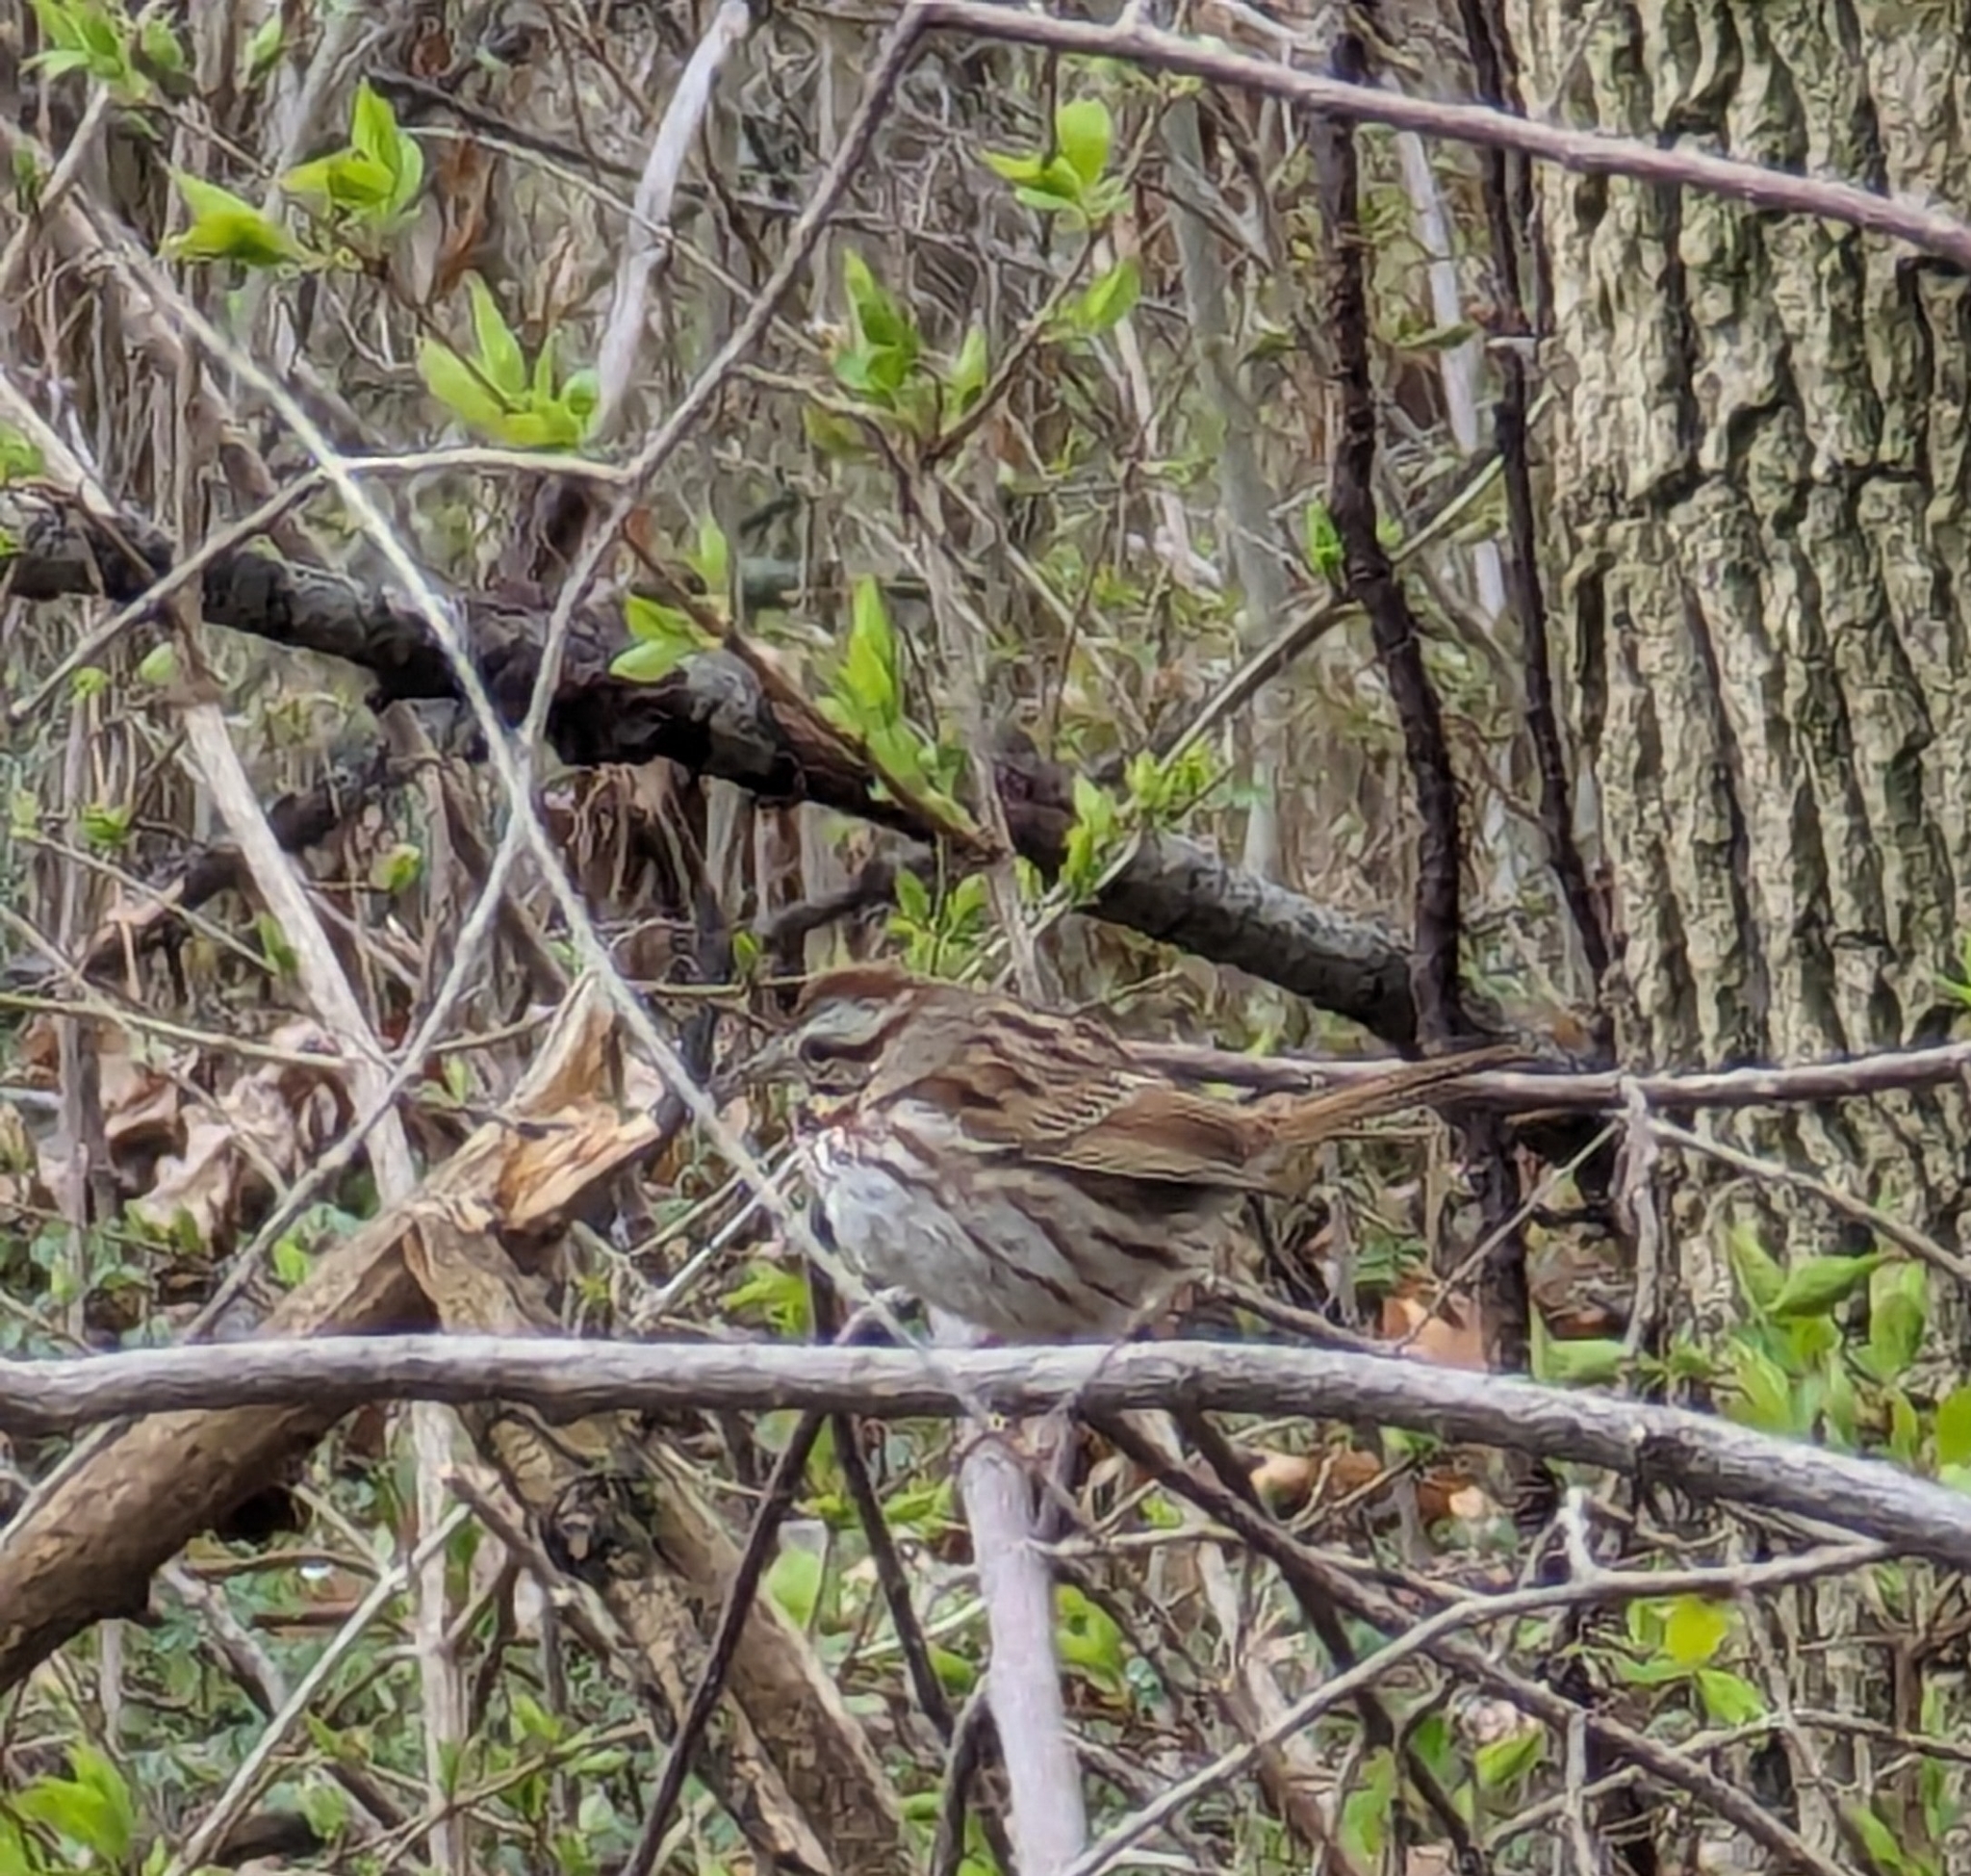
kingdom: Animalia
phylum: Chordata
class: Aves
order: Passeriformes
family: Passerellidae
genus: Melospiza
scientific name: Melospiza melodia
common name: Song sparrow
